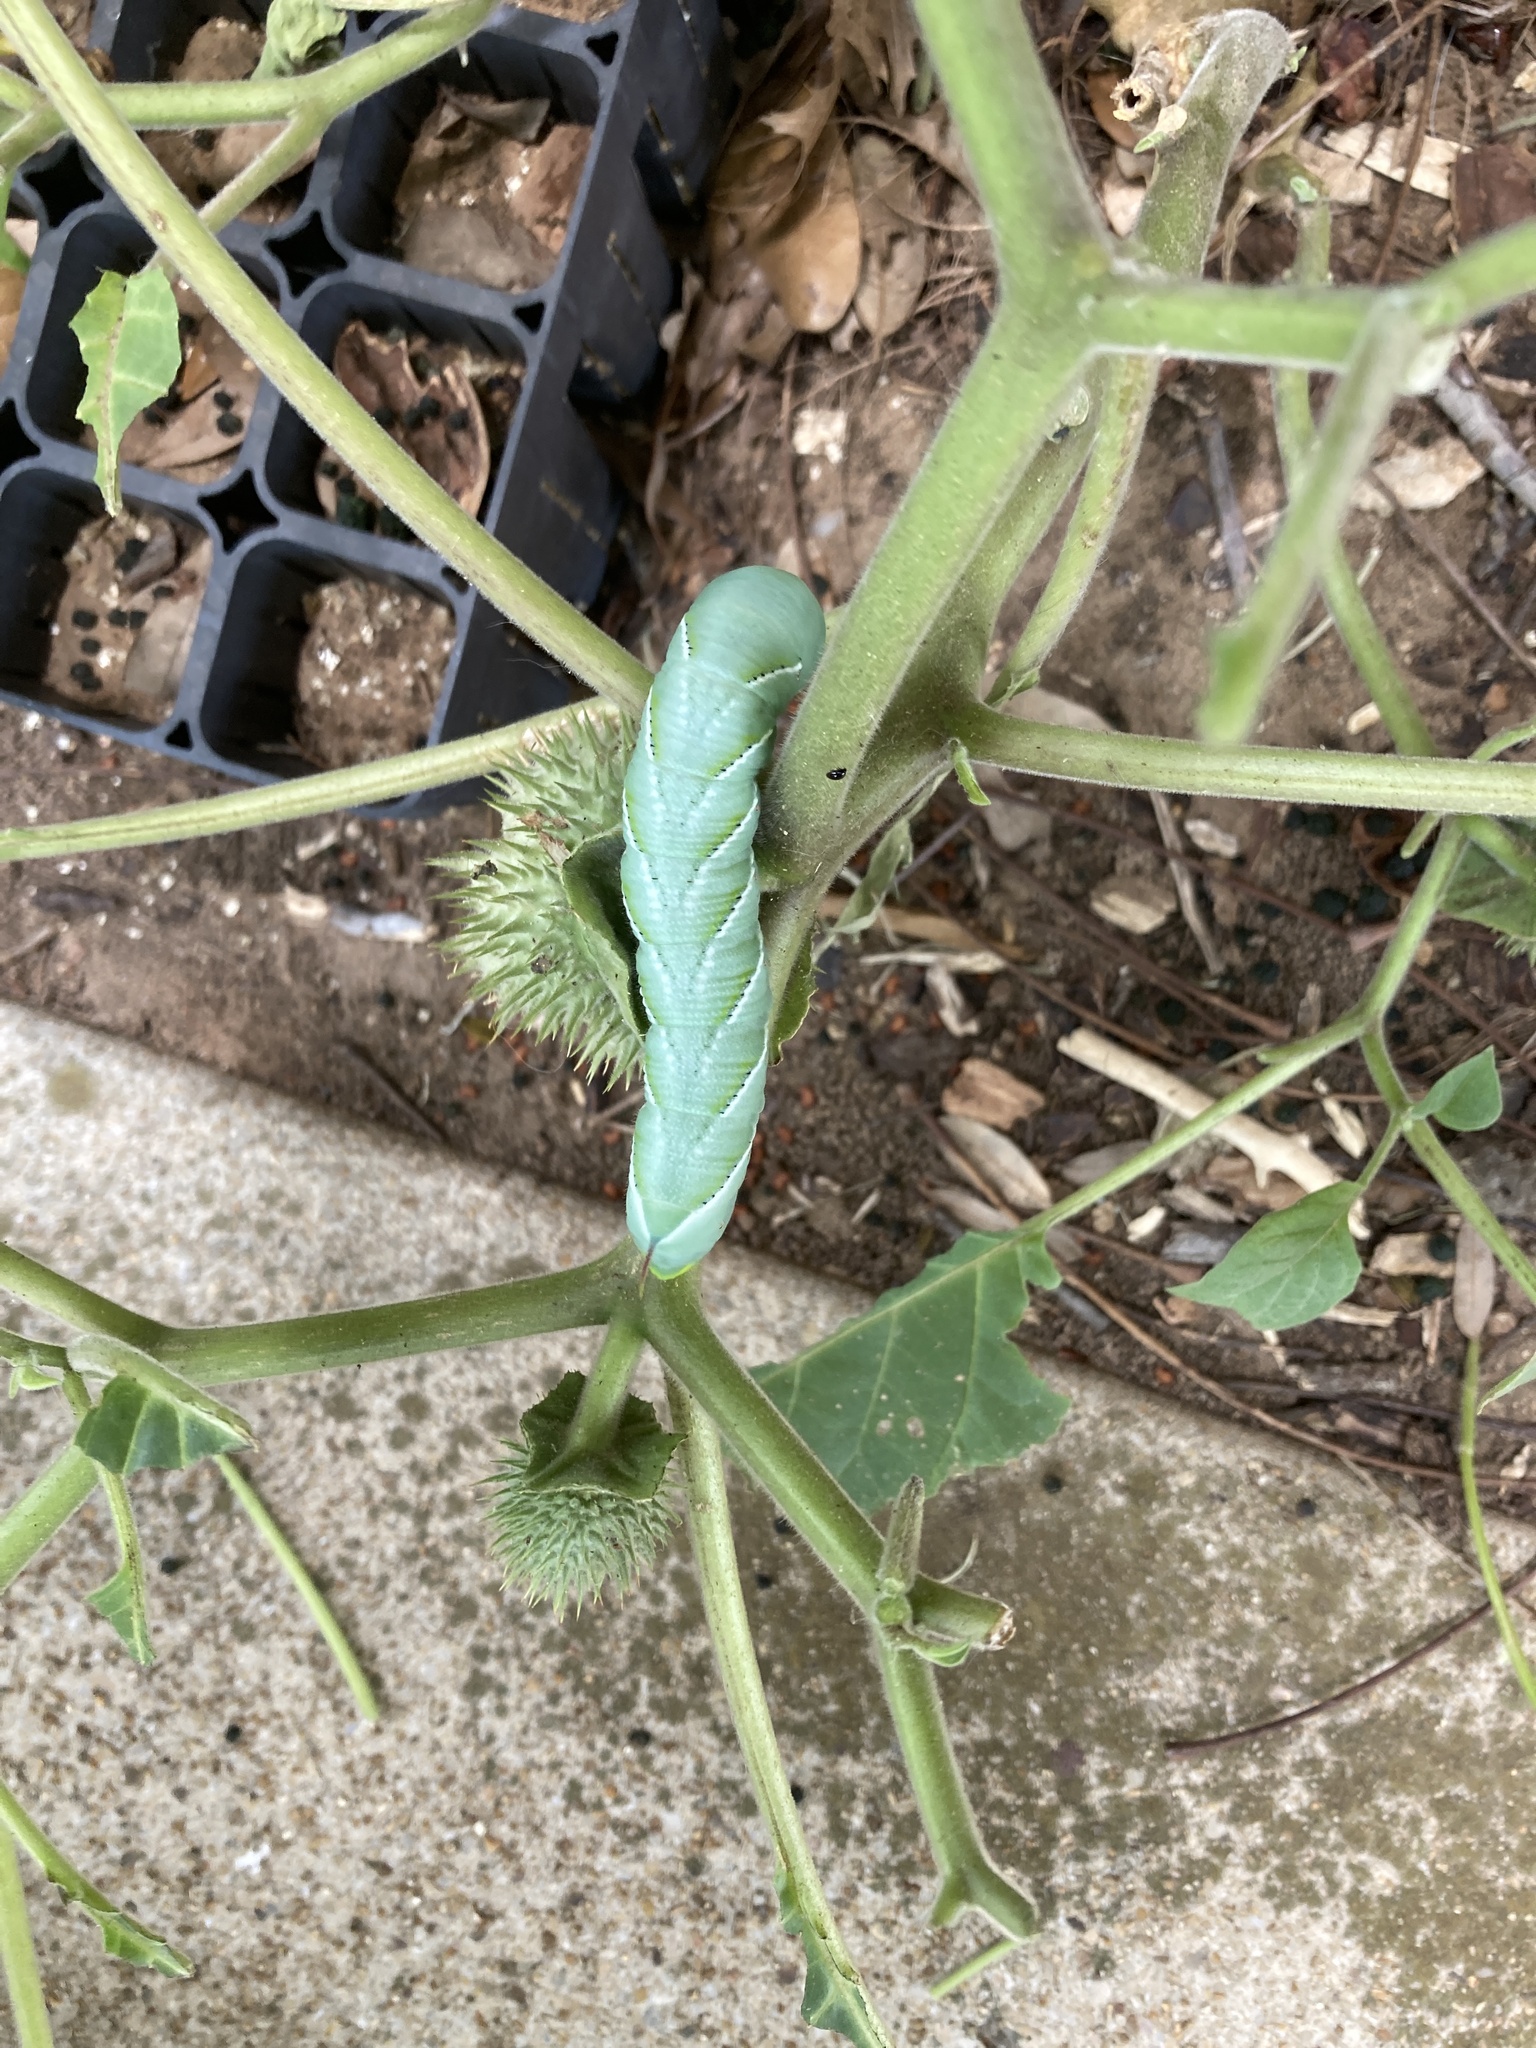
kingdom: Animalia
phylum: Arthropoda
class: Insecta
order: Lepidoptera
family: Sphingidae
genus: Manduca
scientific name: Manduca sexta
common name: Carolina sphinx
